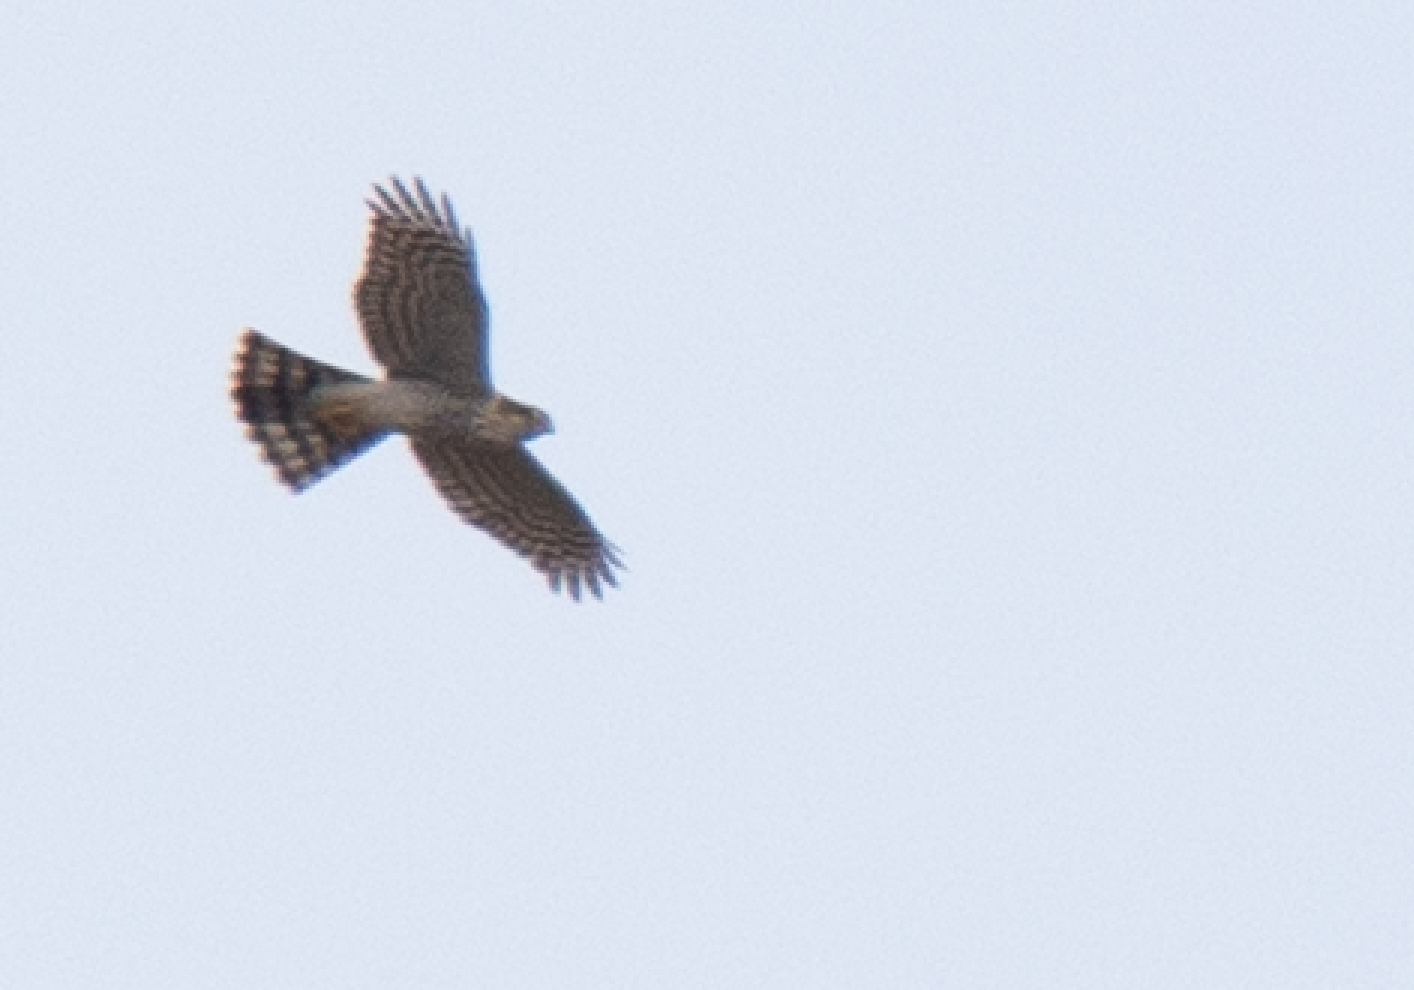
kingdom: Animalia
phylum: Chordata
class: Aves
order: Accipitriformes
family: Accipitridae
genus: Accipiter
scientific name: Accipiter nisus
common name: Eurasian sparrowhawk
